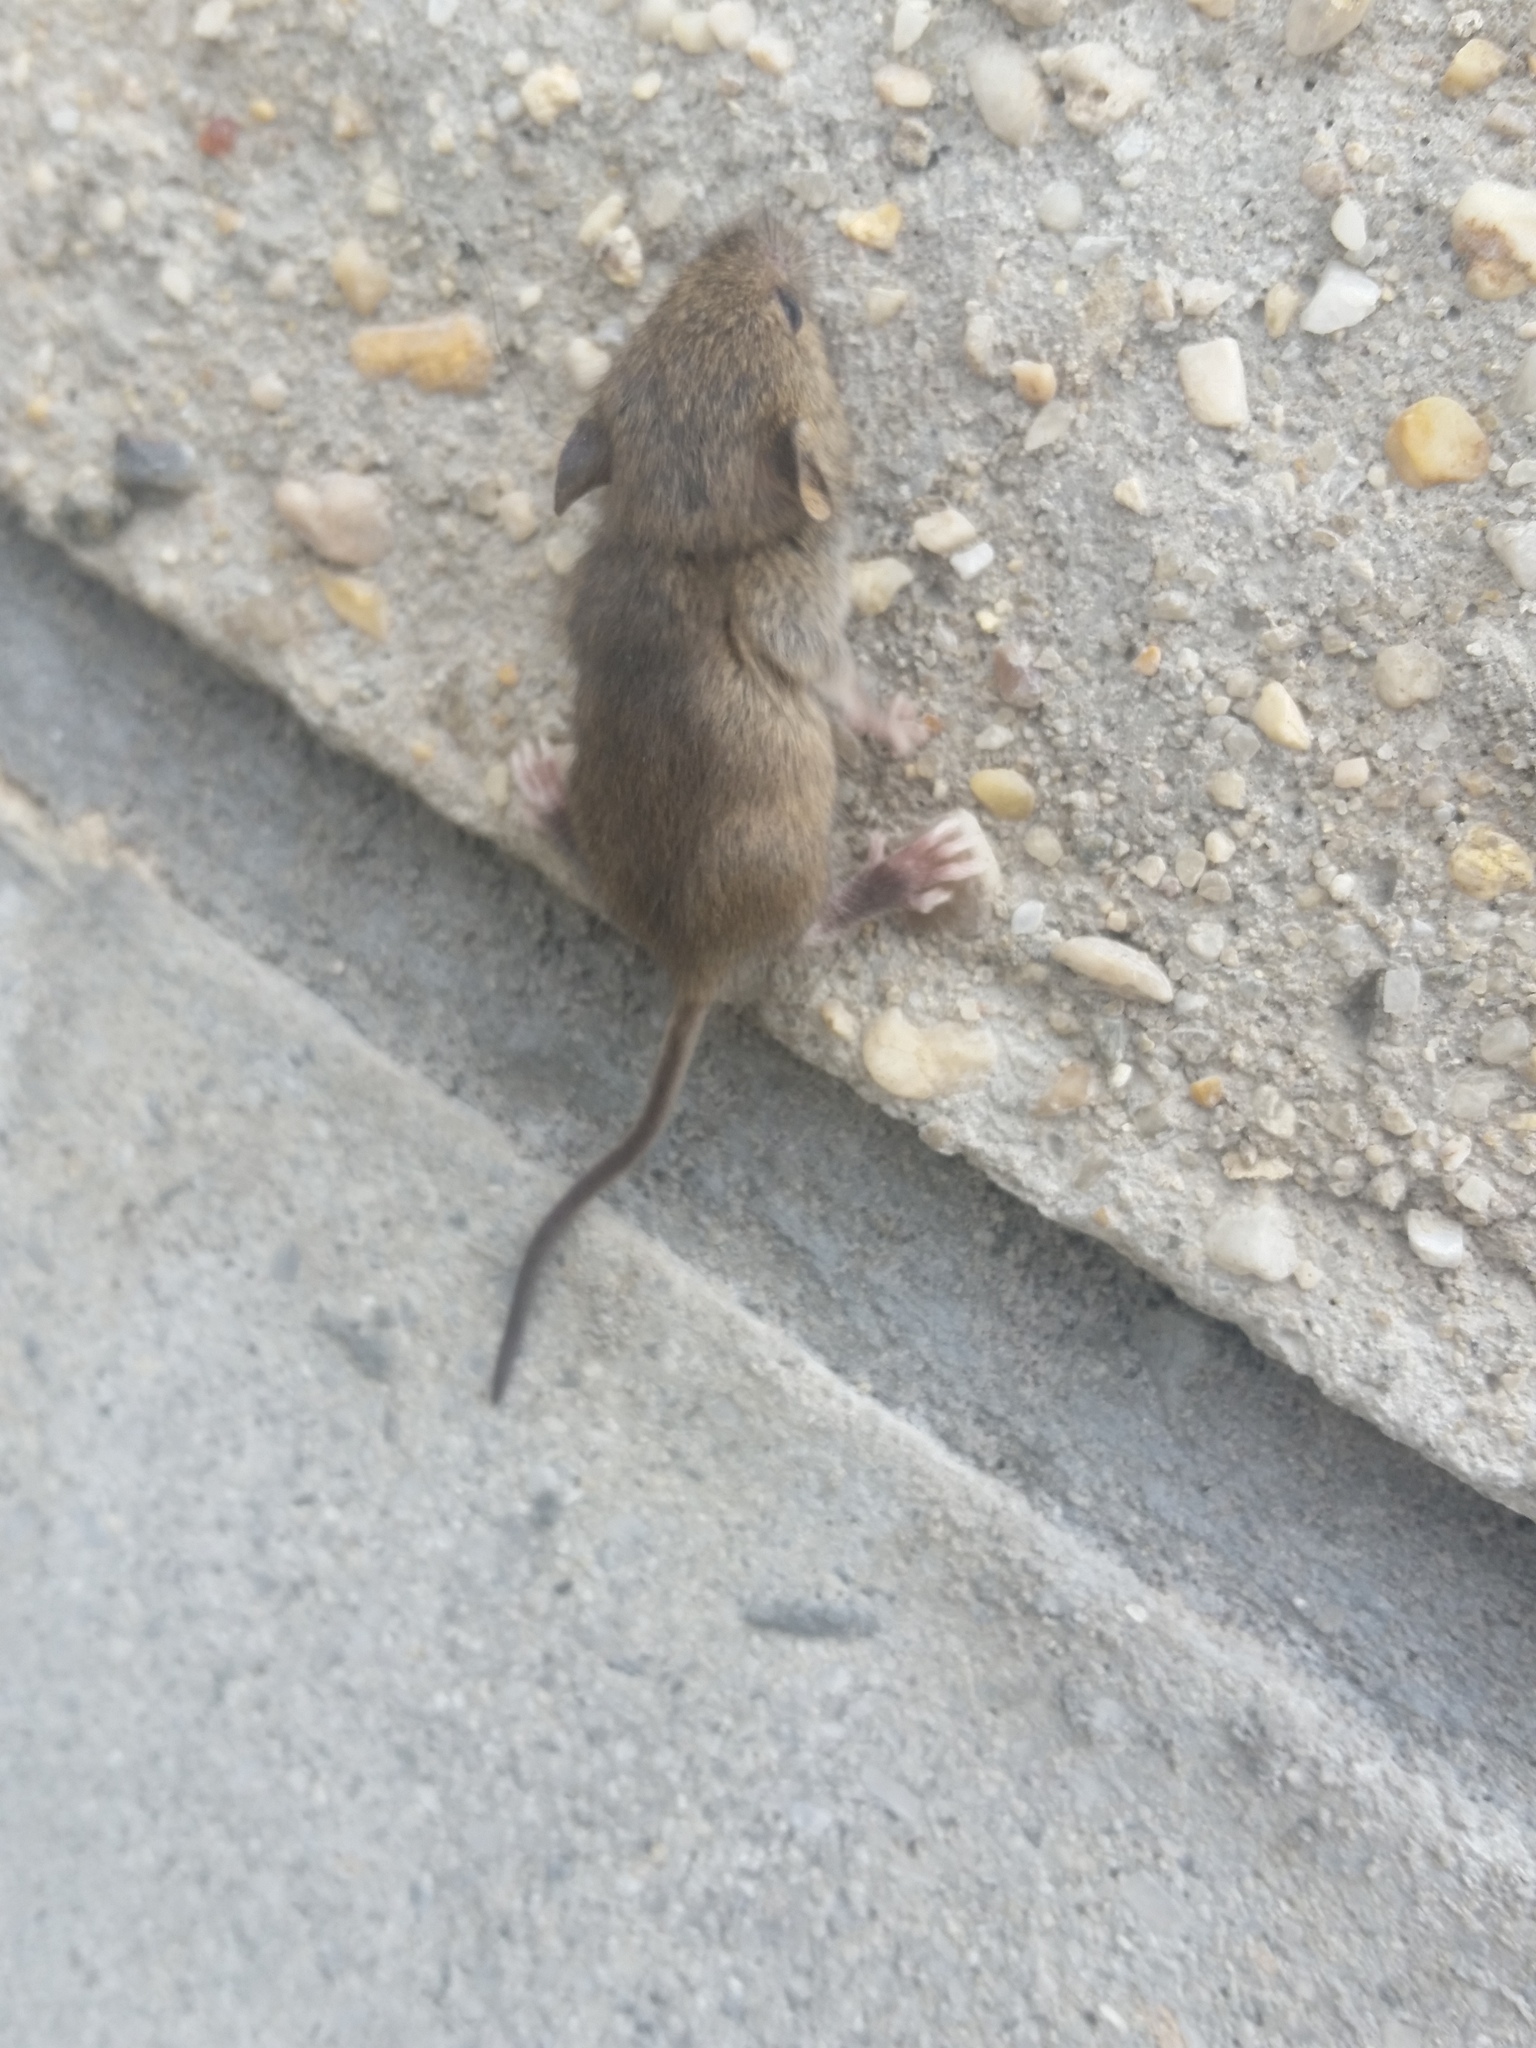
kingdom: Animalia
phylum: Chordata
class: Mammalia
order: Rodentia
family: Muridae
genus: Mus
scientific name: Mus musculus
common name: House mouse
